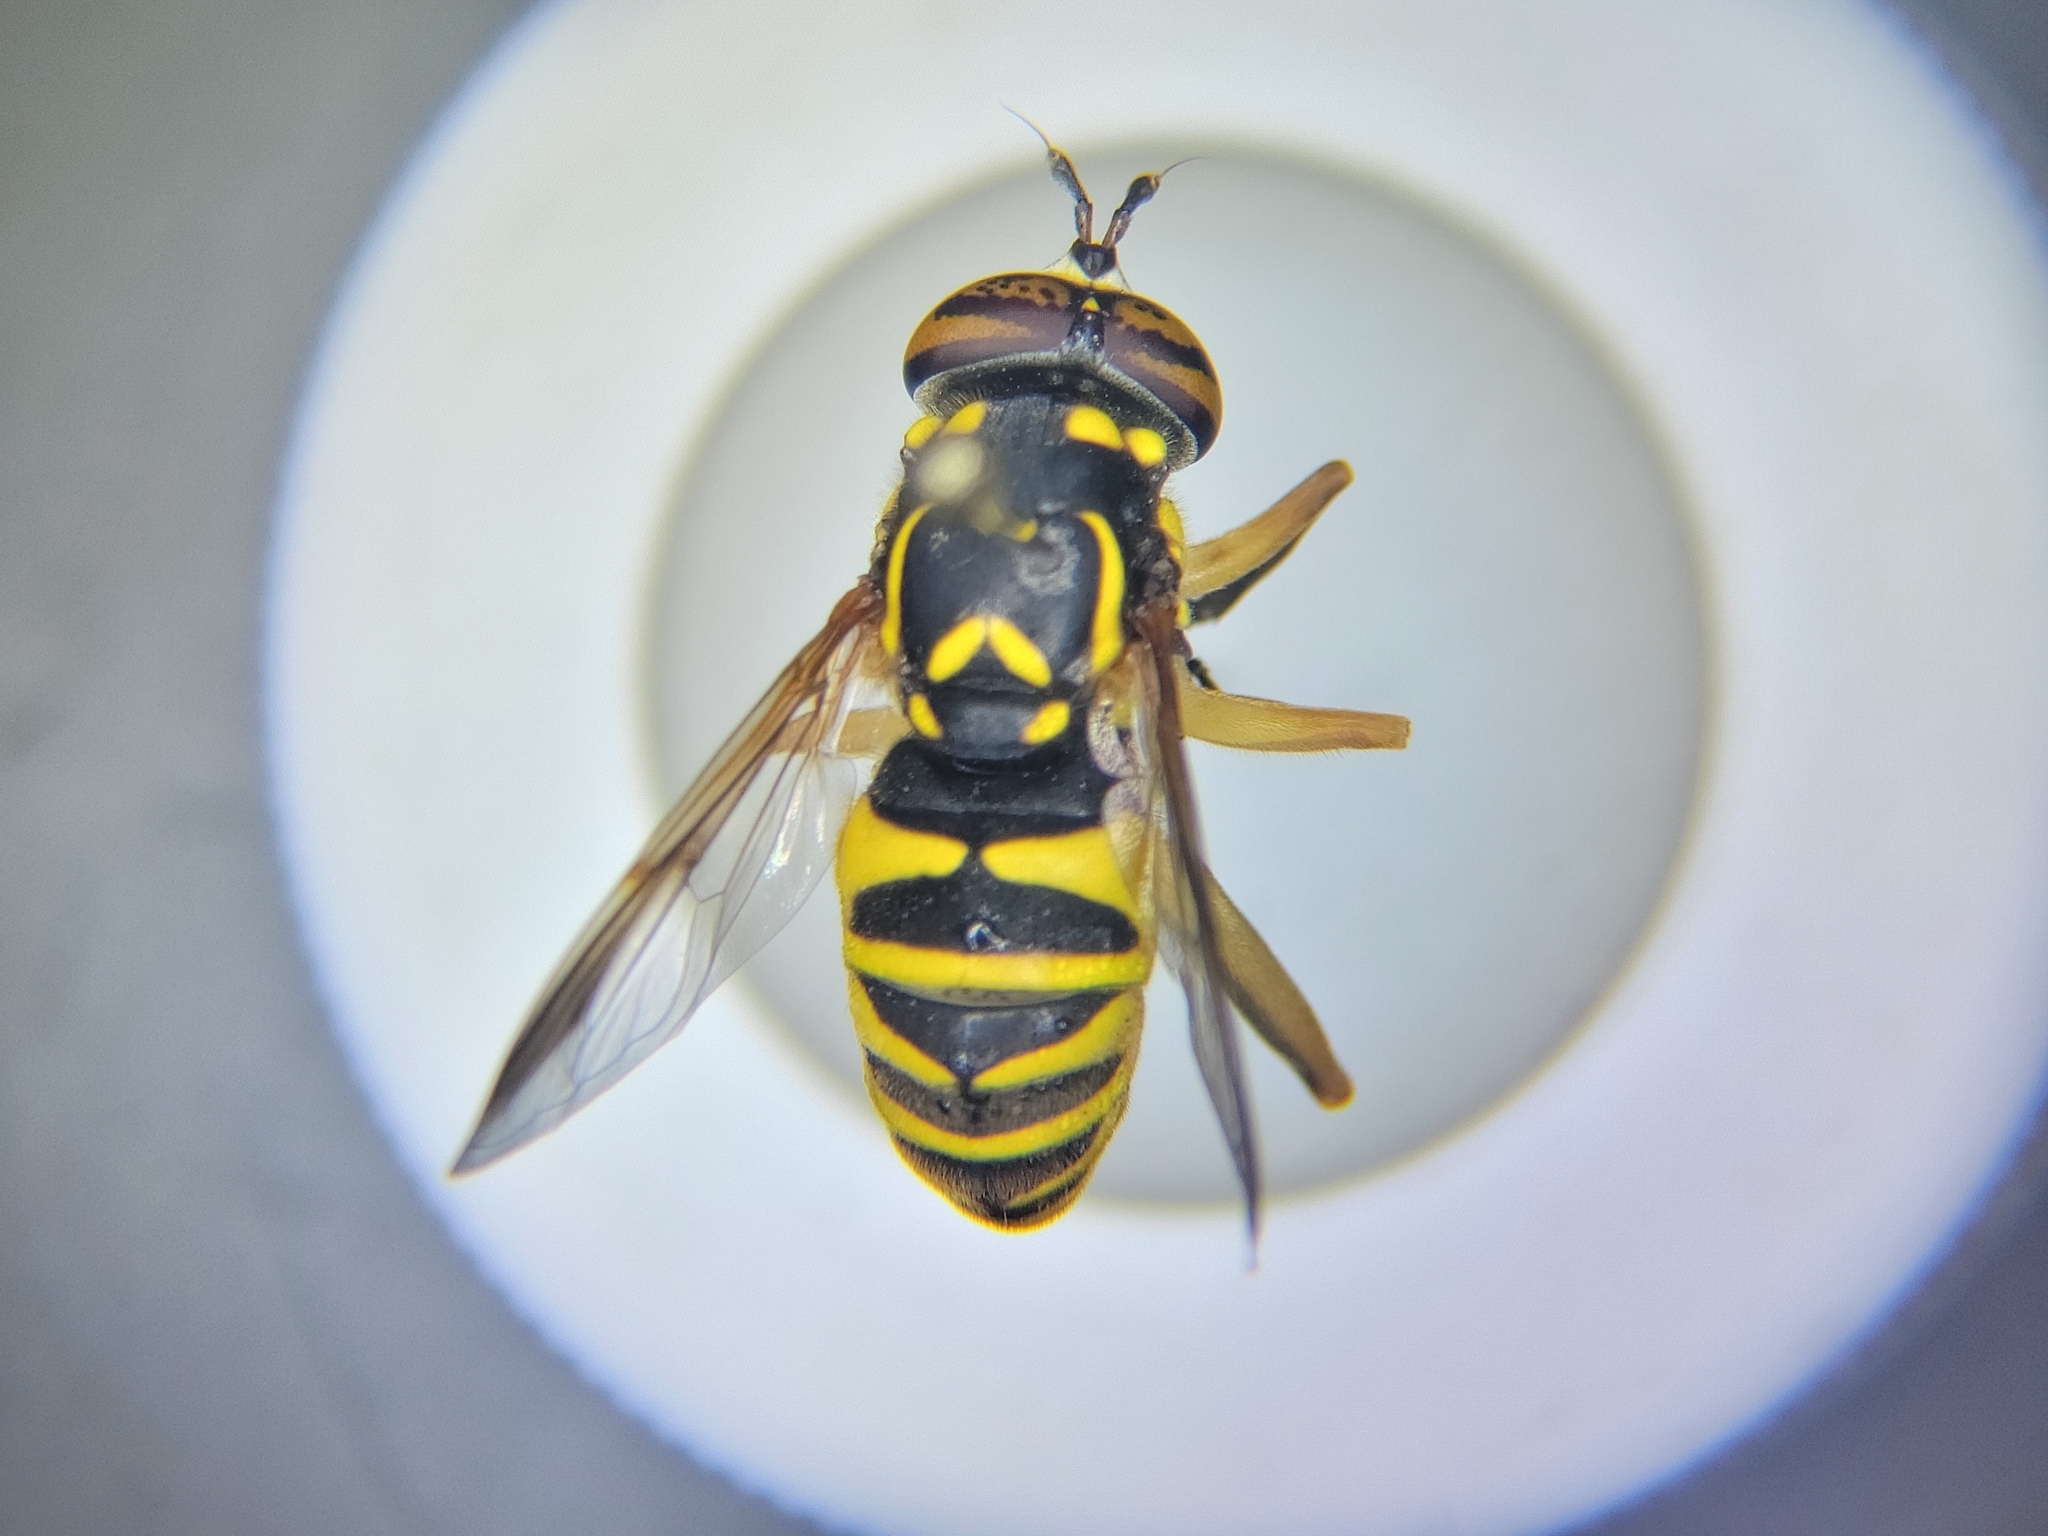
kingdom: Animalia
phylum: Arthropoda
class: Insecta
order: Diptera
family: Syrphidae
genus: Spilomyia
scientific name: Spilomyia liturata
